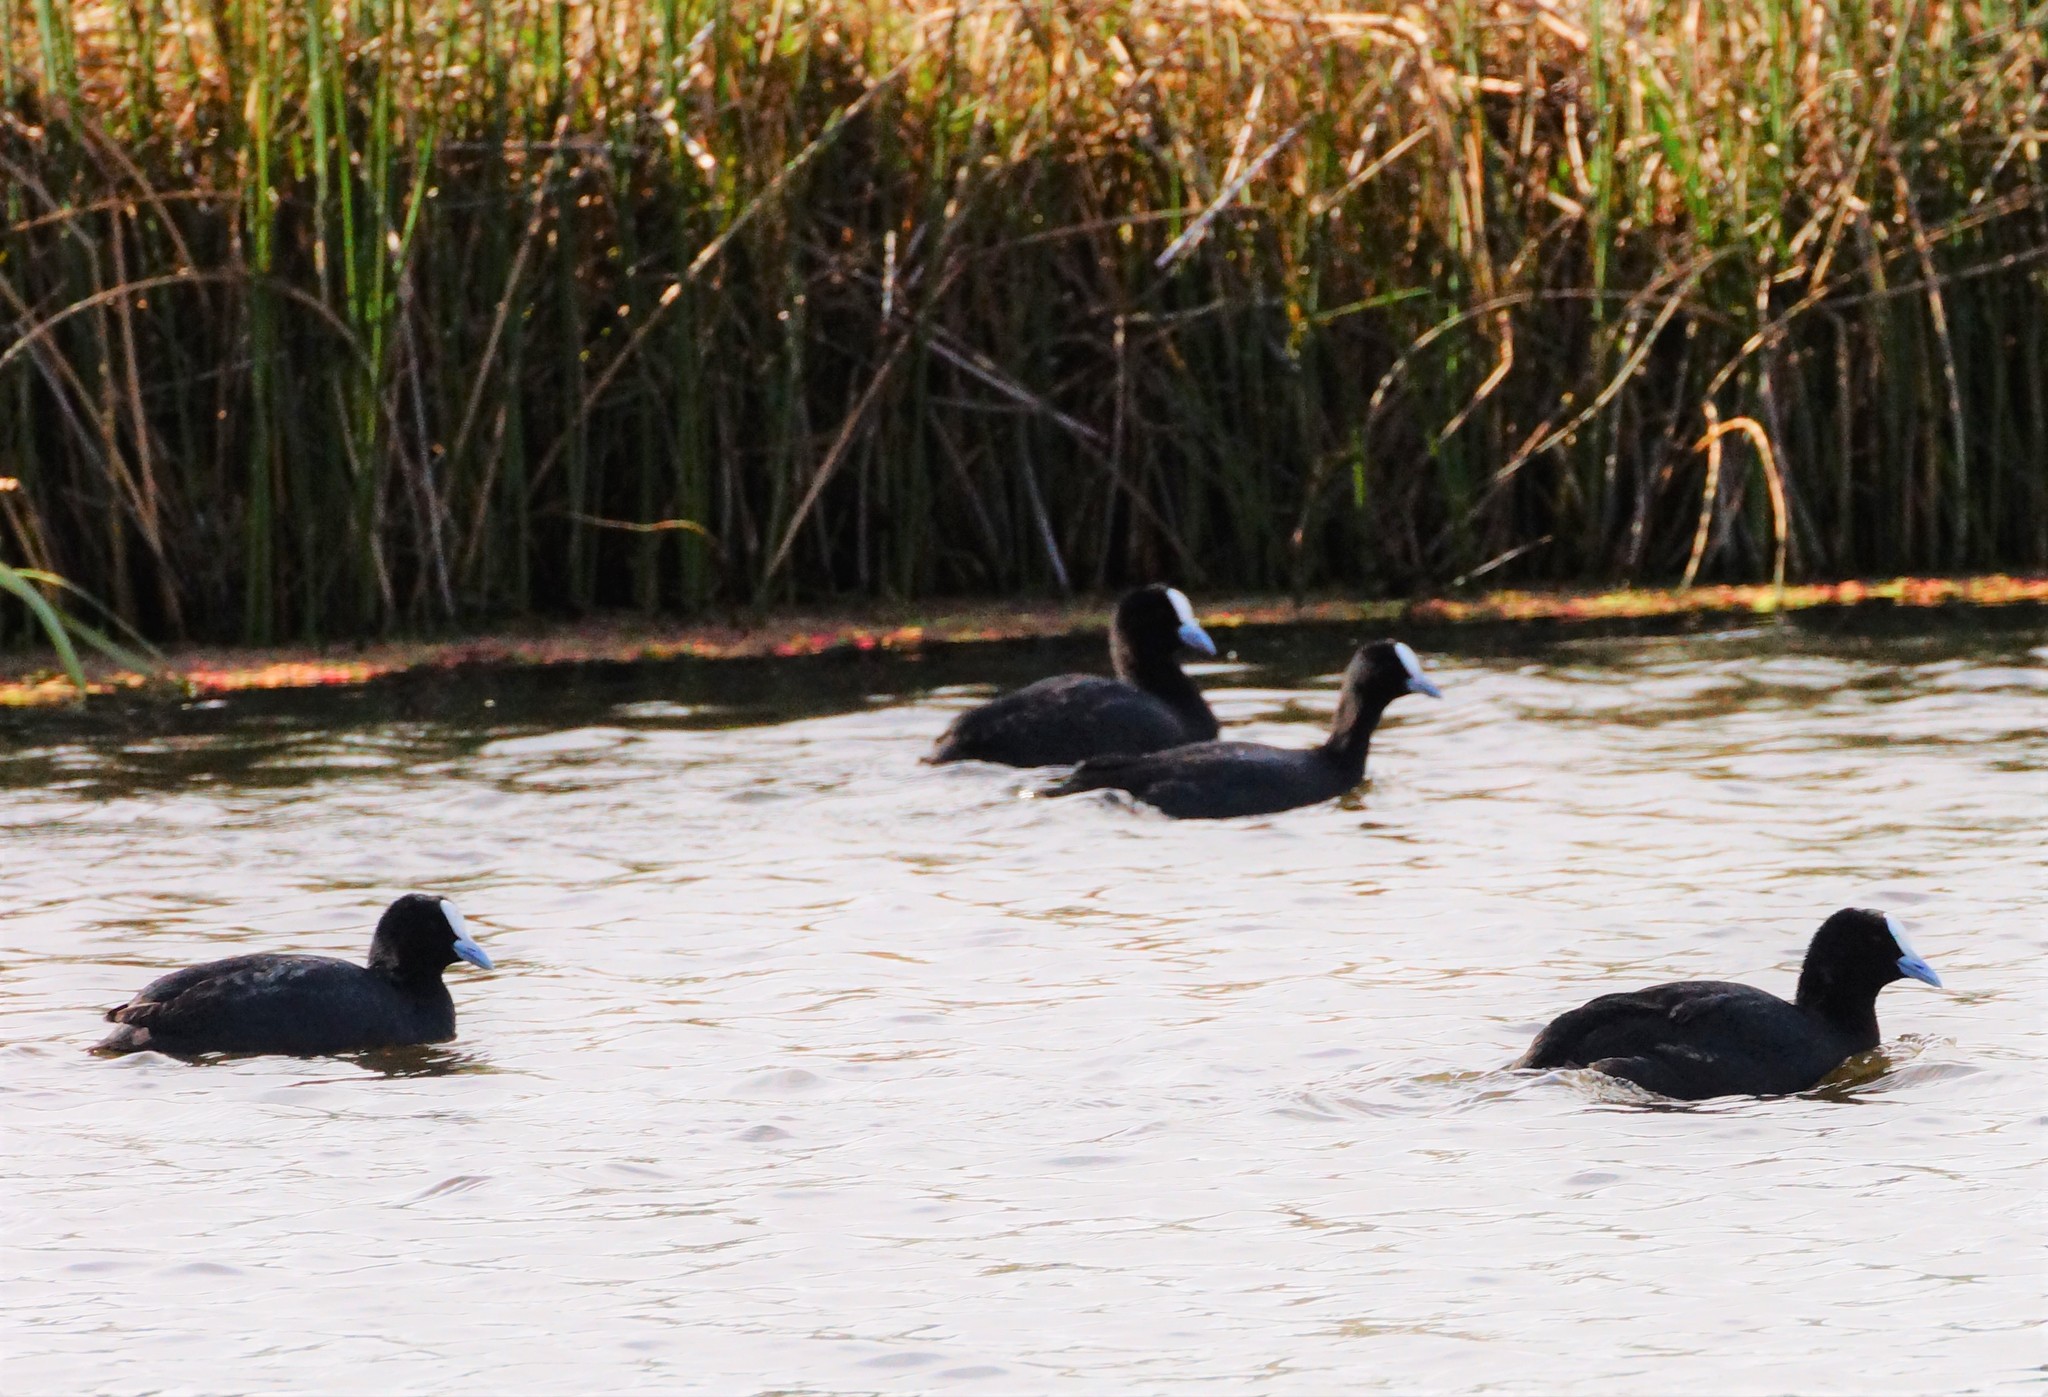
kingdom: Animalia
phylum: Chordata
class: Aves
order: Gruiformes
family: Rallidae
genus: Fulica
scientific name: Fulica atra
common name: Eurasian coot
